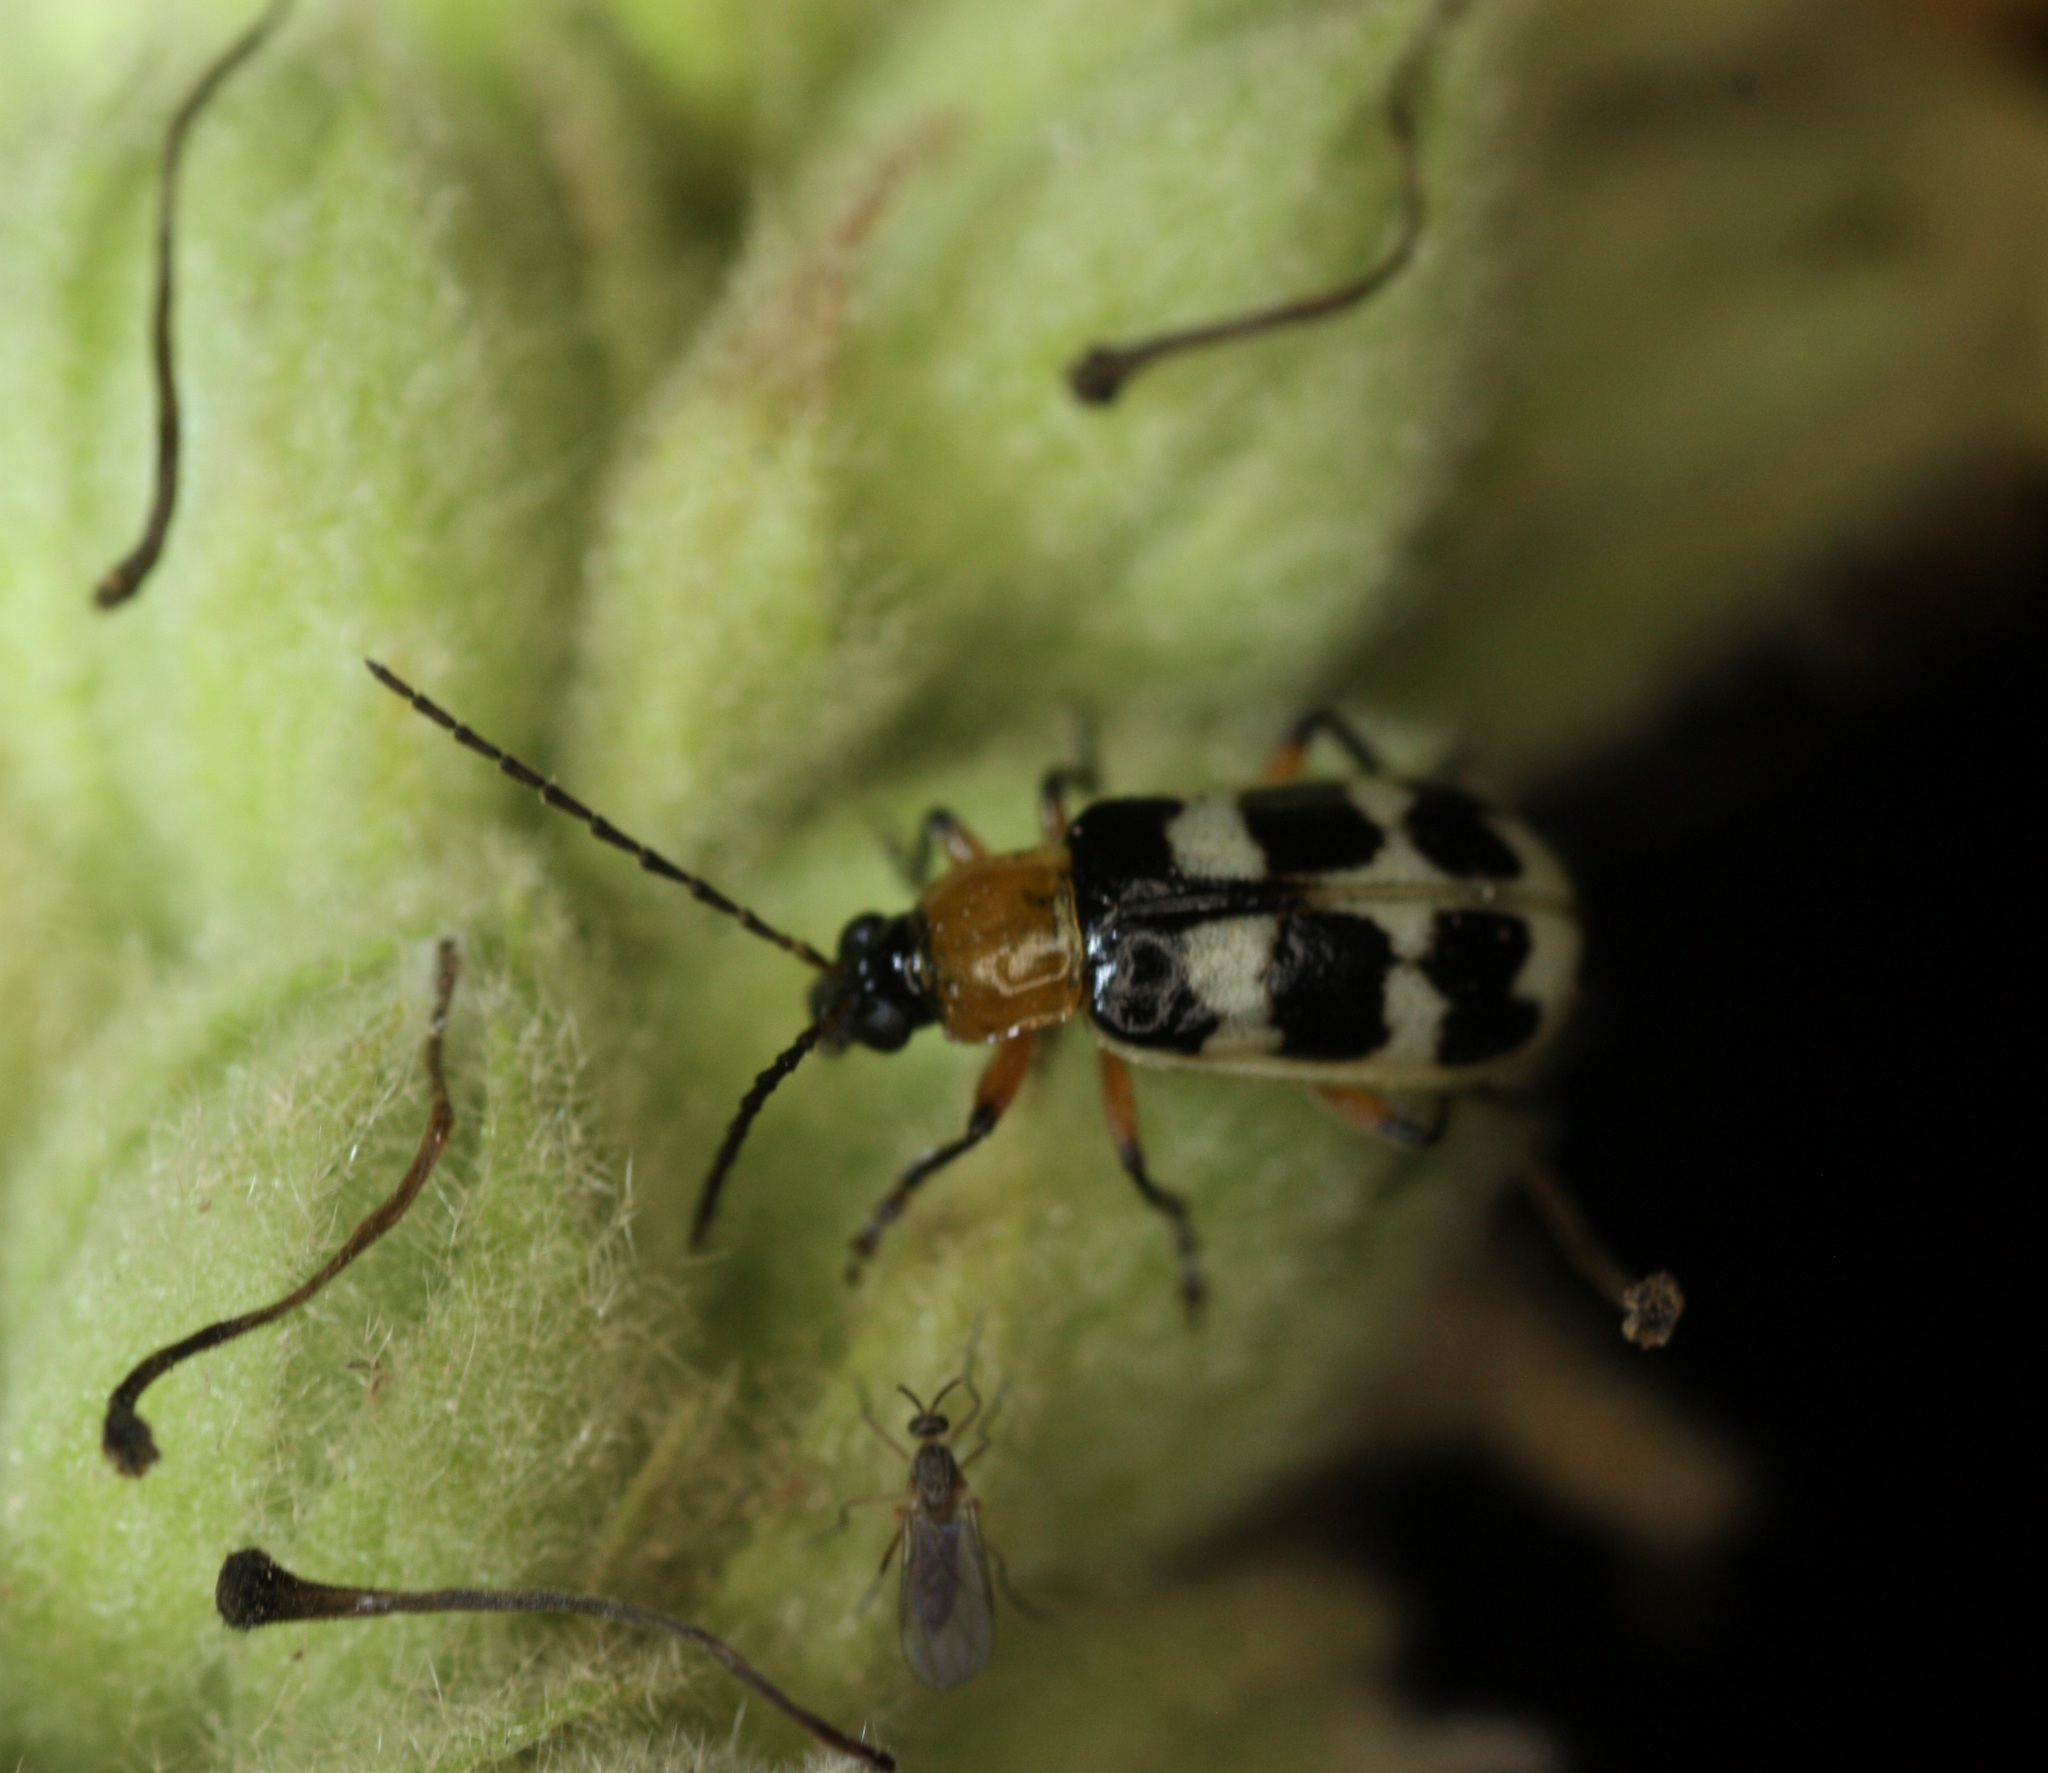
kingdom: Animalia
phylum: Arthropoda
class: Insecta
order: Coleoptera
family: Chrysomelidae
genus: Paranapiacaba
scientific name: Paranapiacaba tricincta
